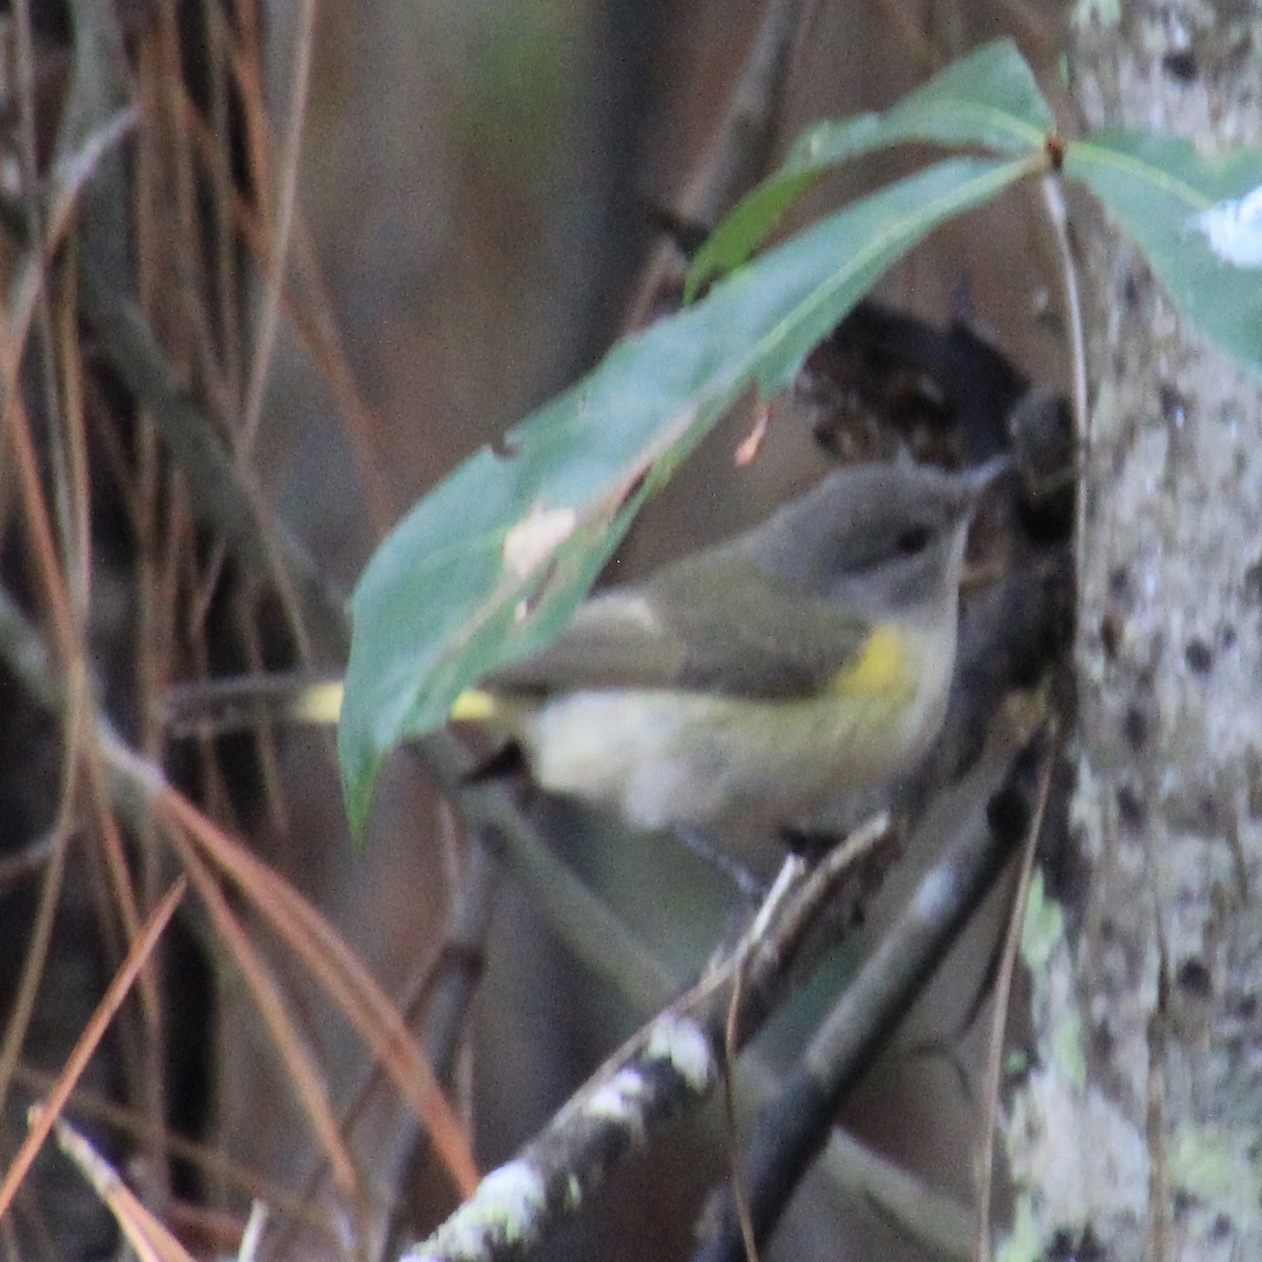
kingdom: Animalia
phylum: Chordata
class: Aves
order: Passeriformes
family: Parulidae
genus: Setophaga
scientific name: Setophaga ruticilla
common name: American redstart
